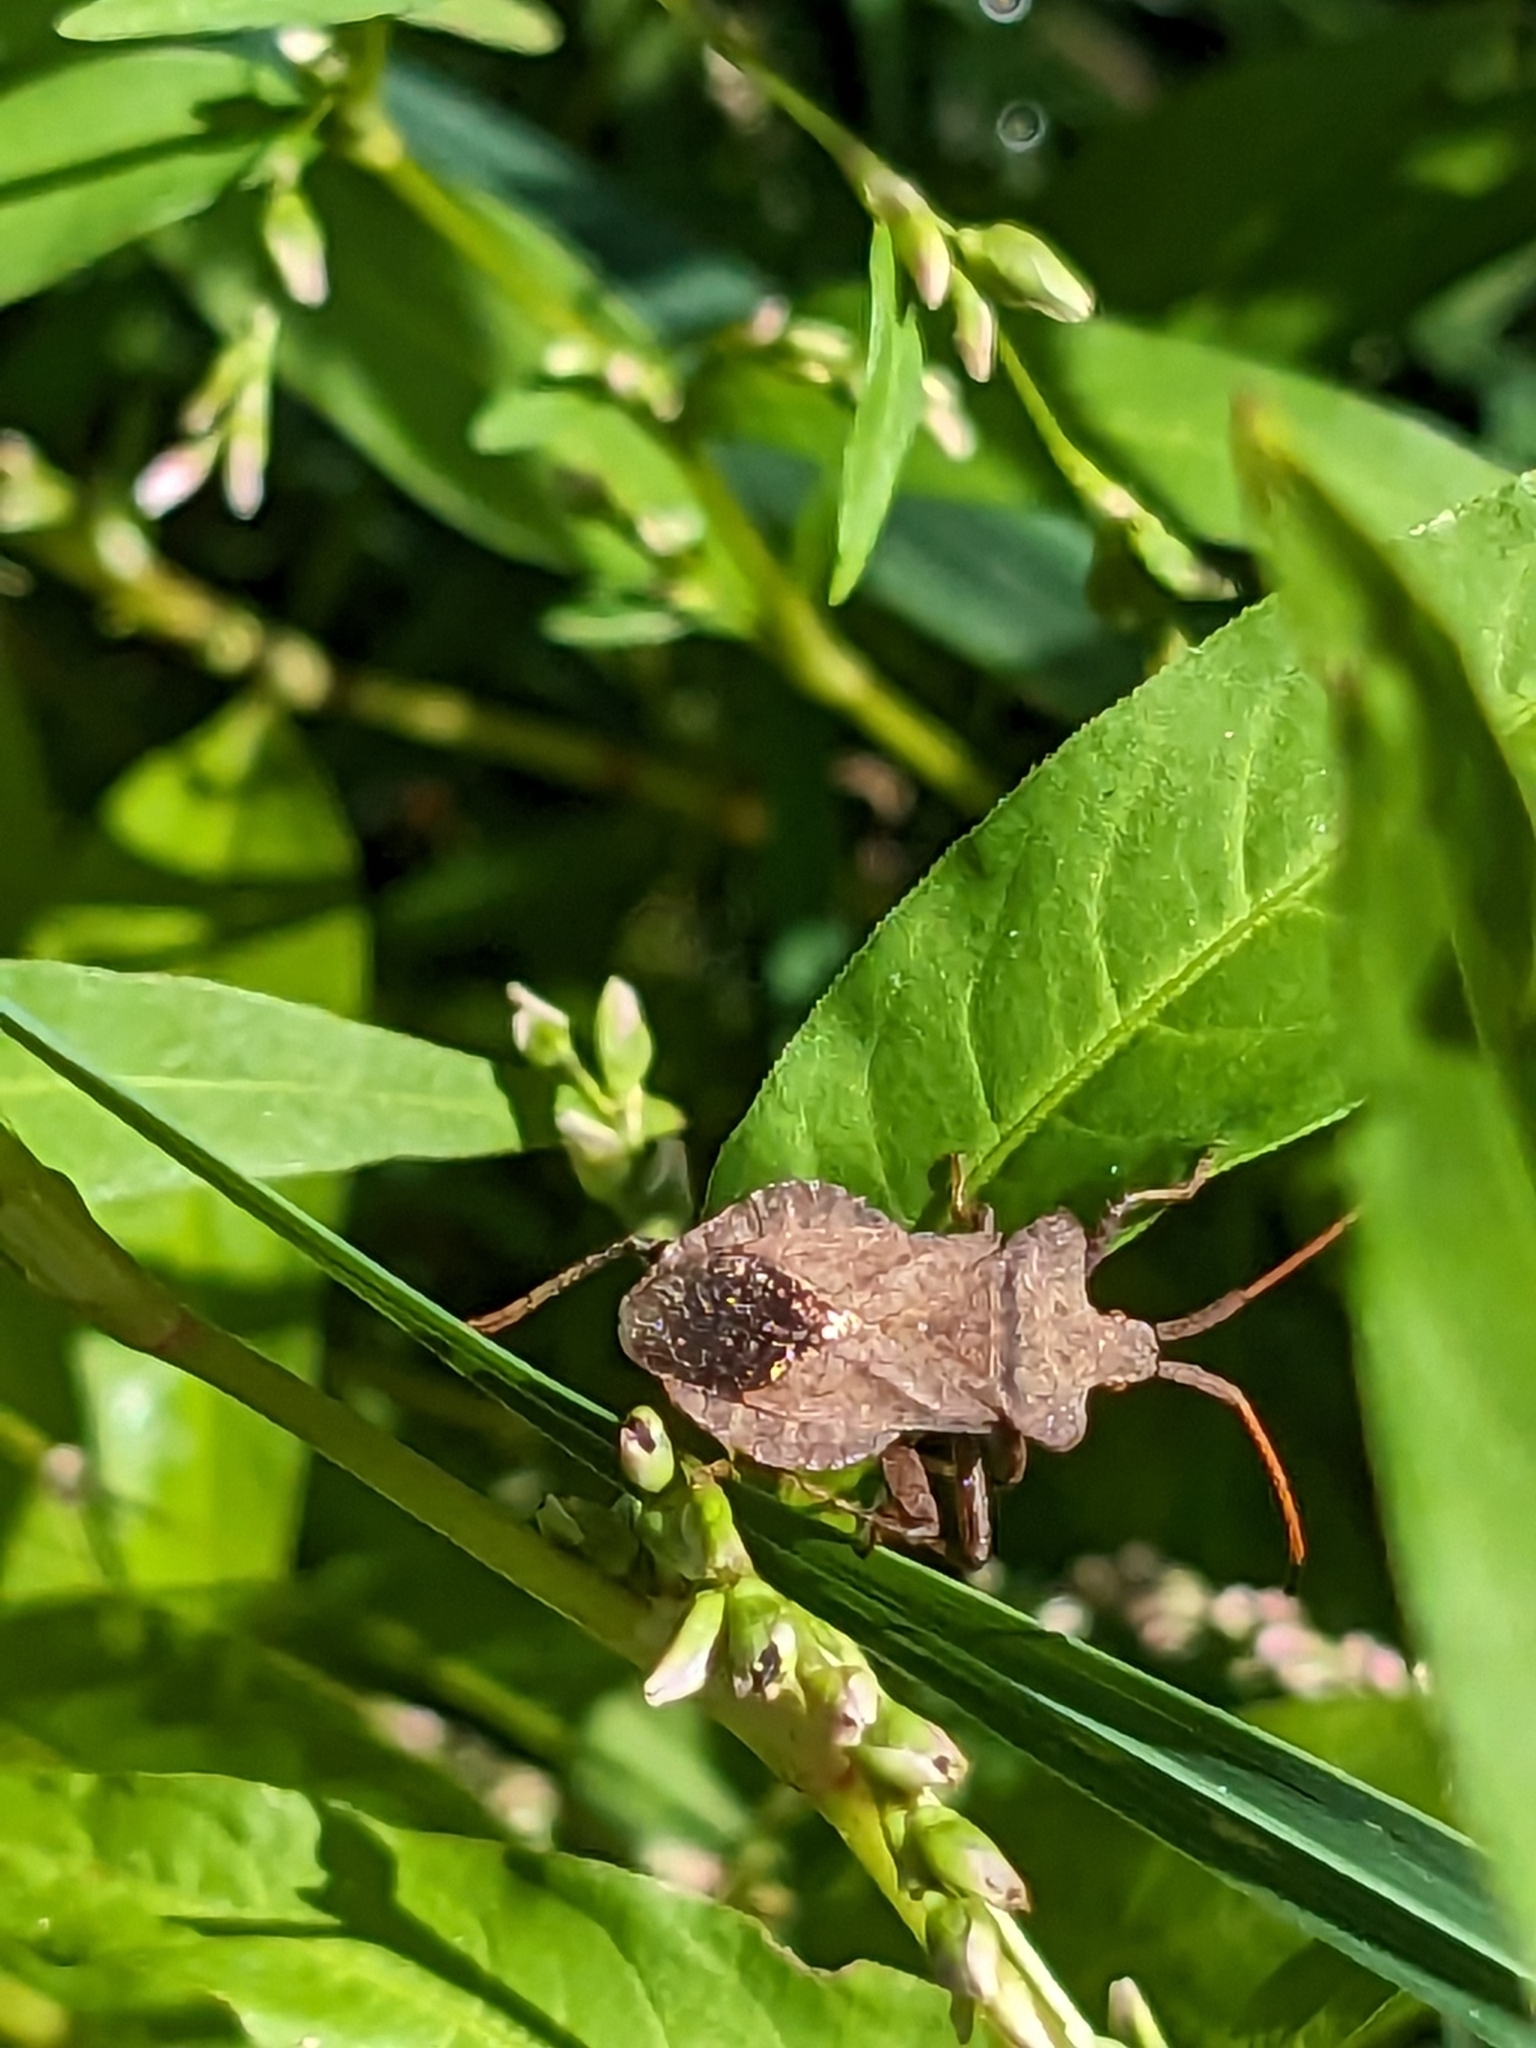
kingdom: Animalia
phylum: Arthropoda
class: Insecta
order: Hemiptera
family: Coreidae
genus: Coreus
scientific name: Coreus marginatus
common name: Dock bug
